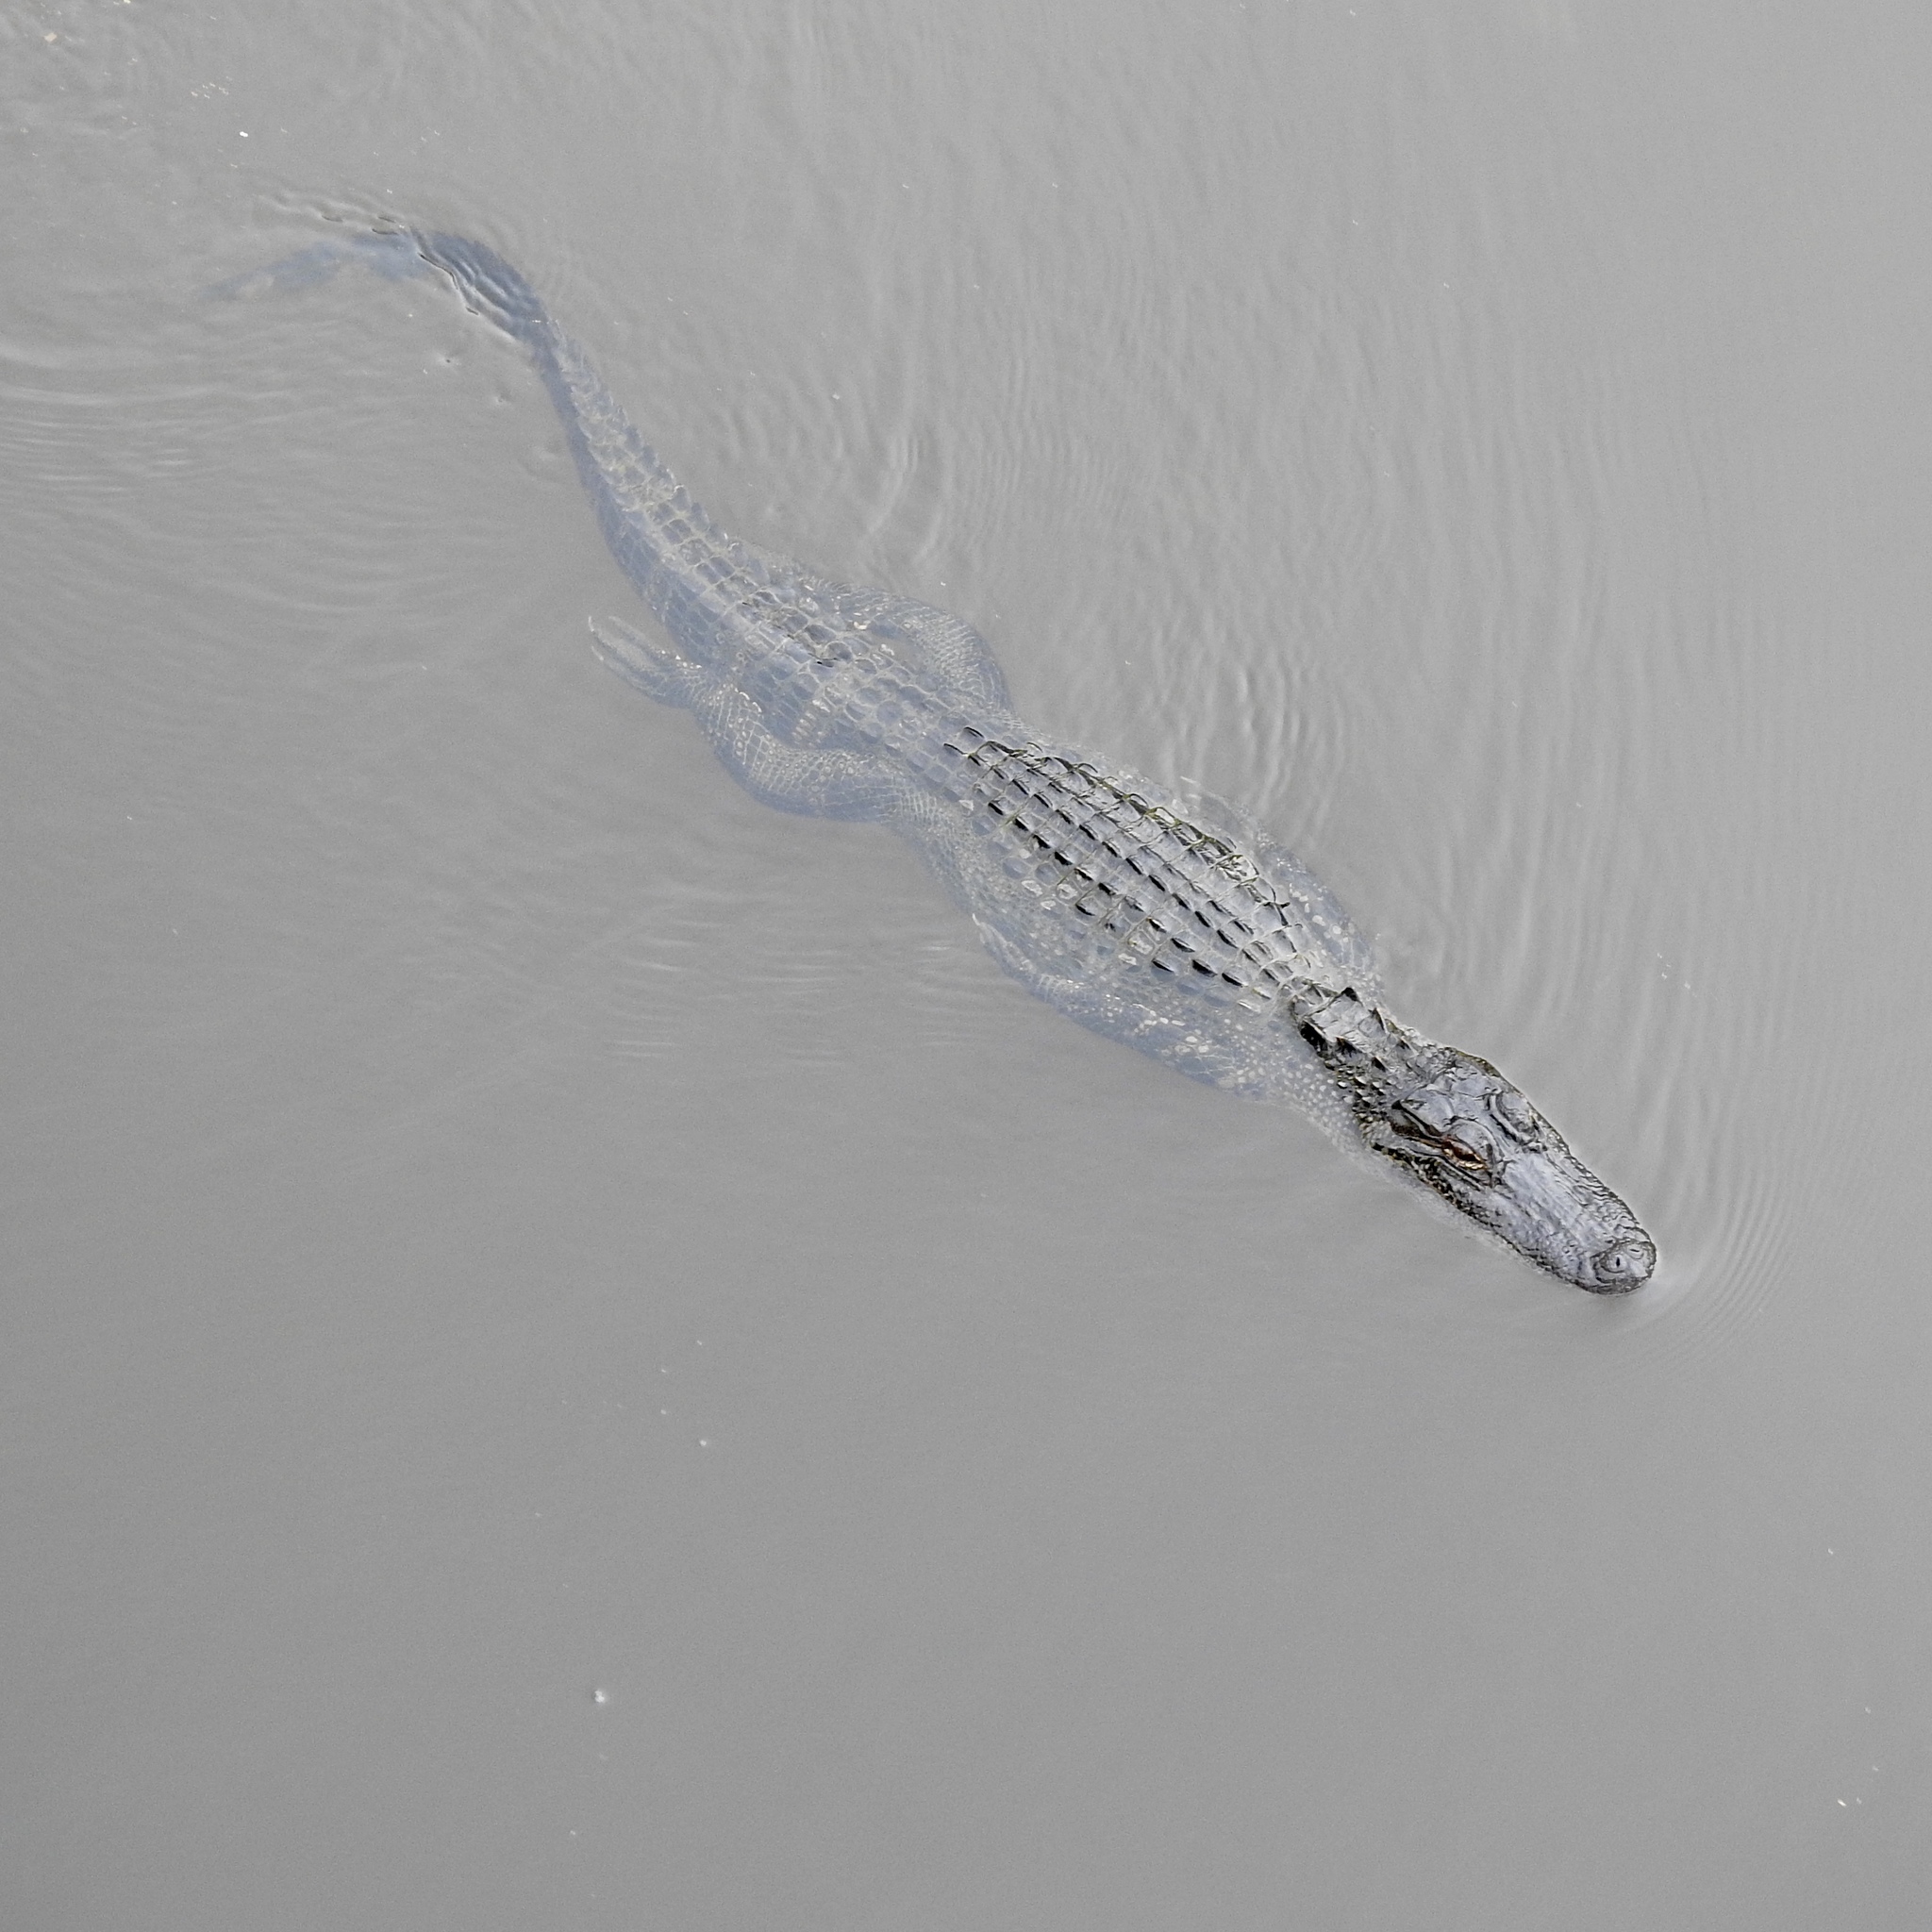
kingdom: Animalia
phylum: Chordata
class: Crocodylia
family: Alligatoridae
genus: Alligator
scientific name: Alligator mississippiensis
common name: American alligator
